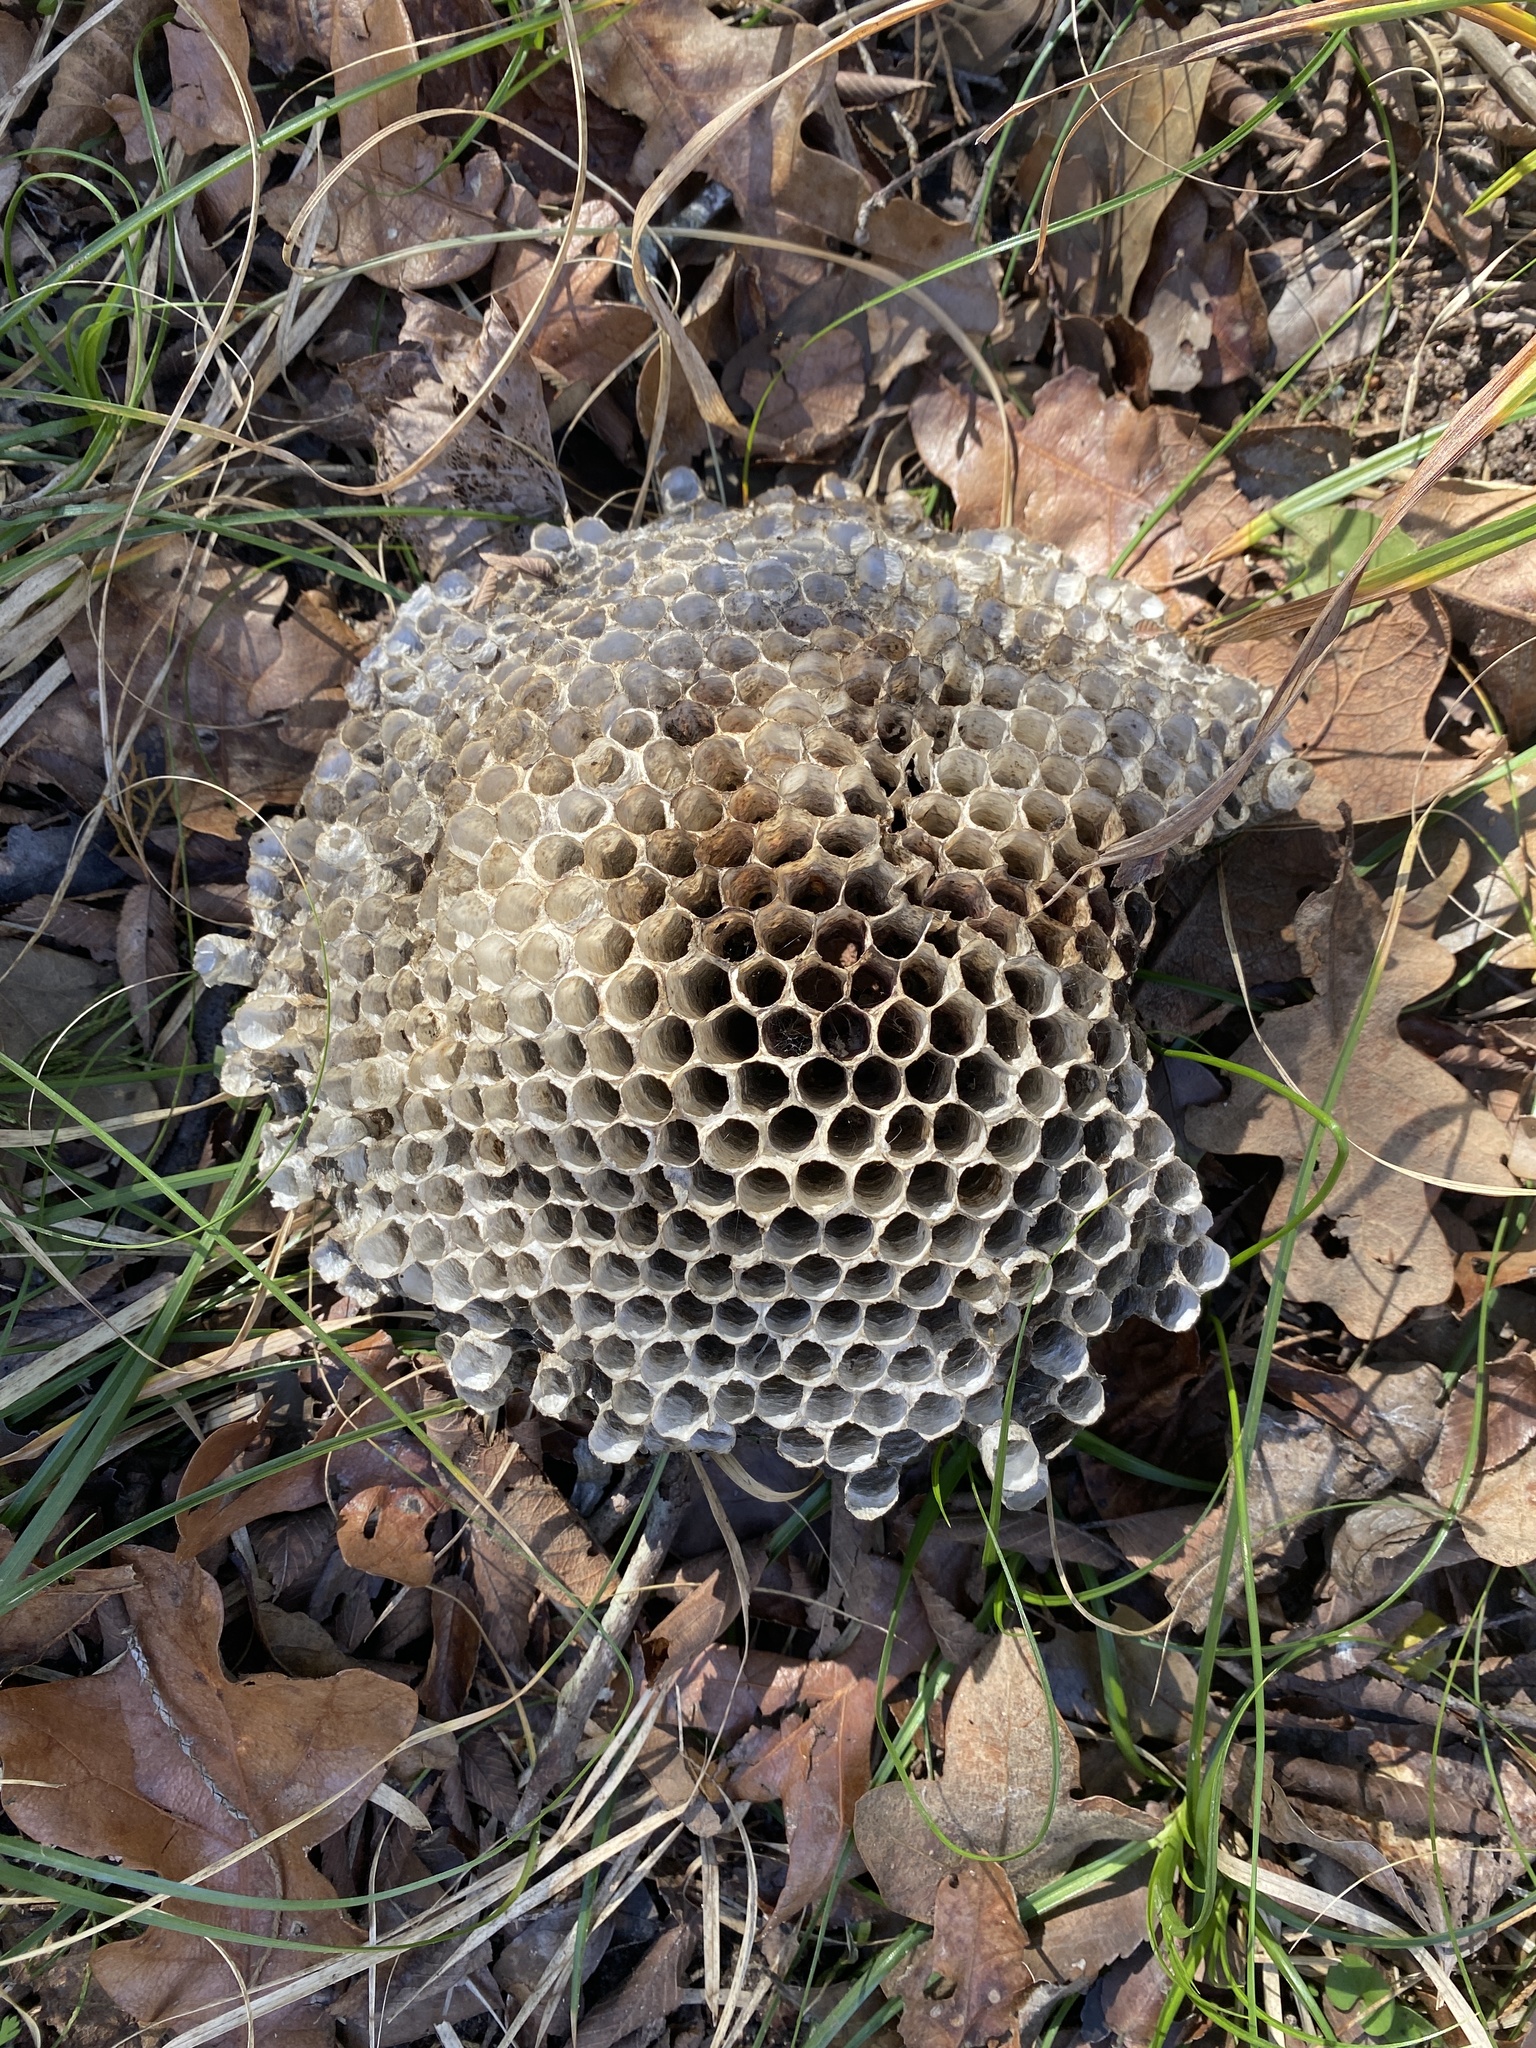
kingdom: Animalia
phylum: Arthropoda
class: Insecta
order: Hymenoptera
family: Vespidae
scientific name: Vespidae
